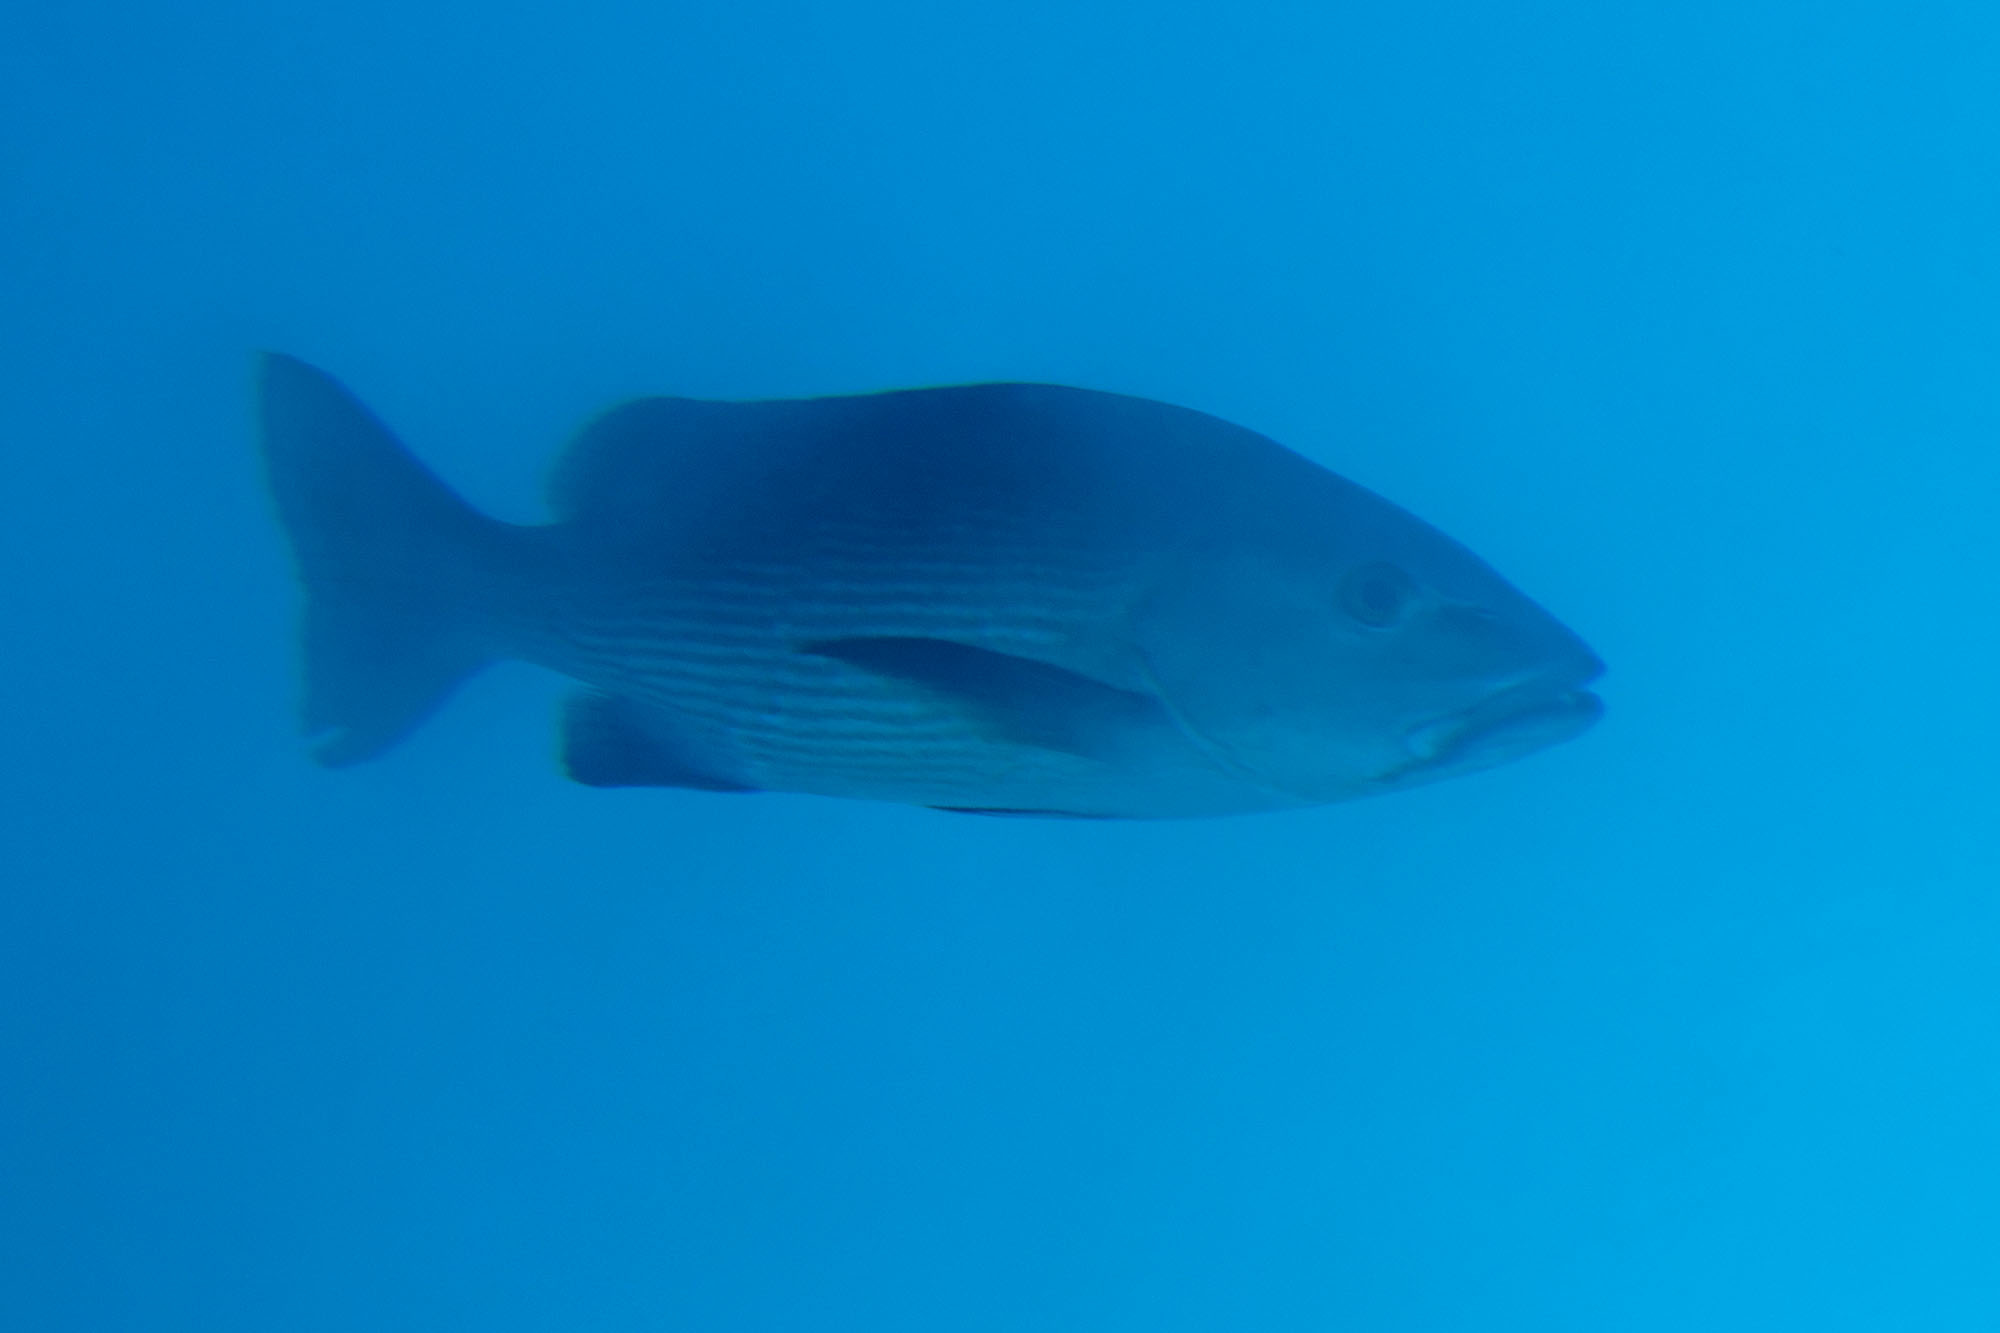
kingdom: Animalia
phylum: Chordata
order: Perciformes
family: Lutjanidae
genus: Lutjanus
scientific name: Lutjanus bohar
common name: Red bass
